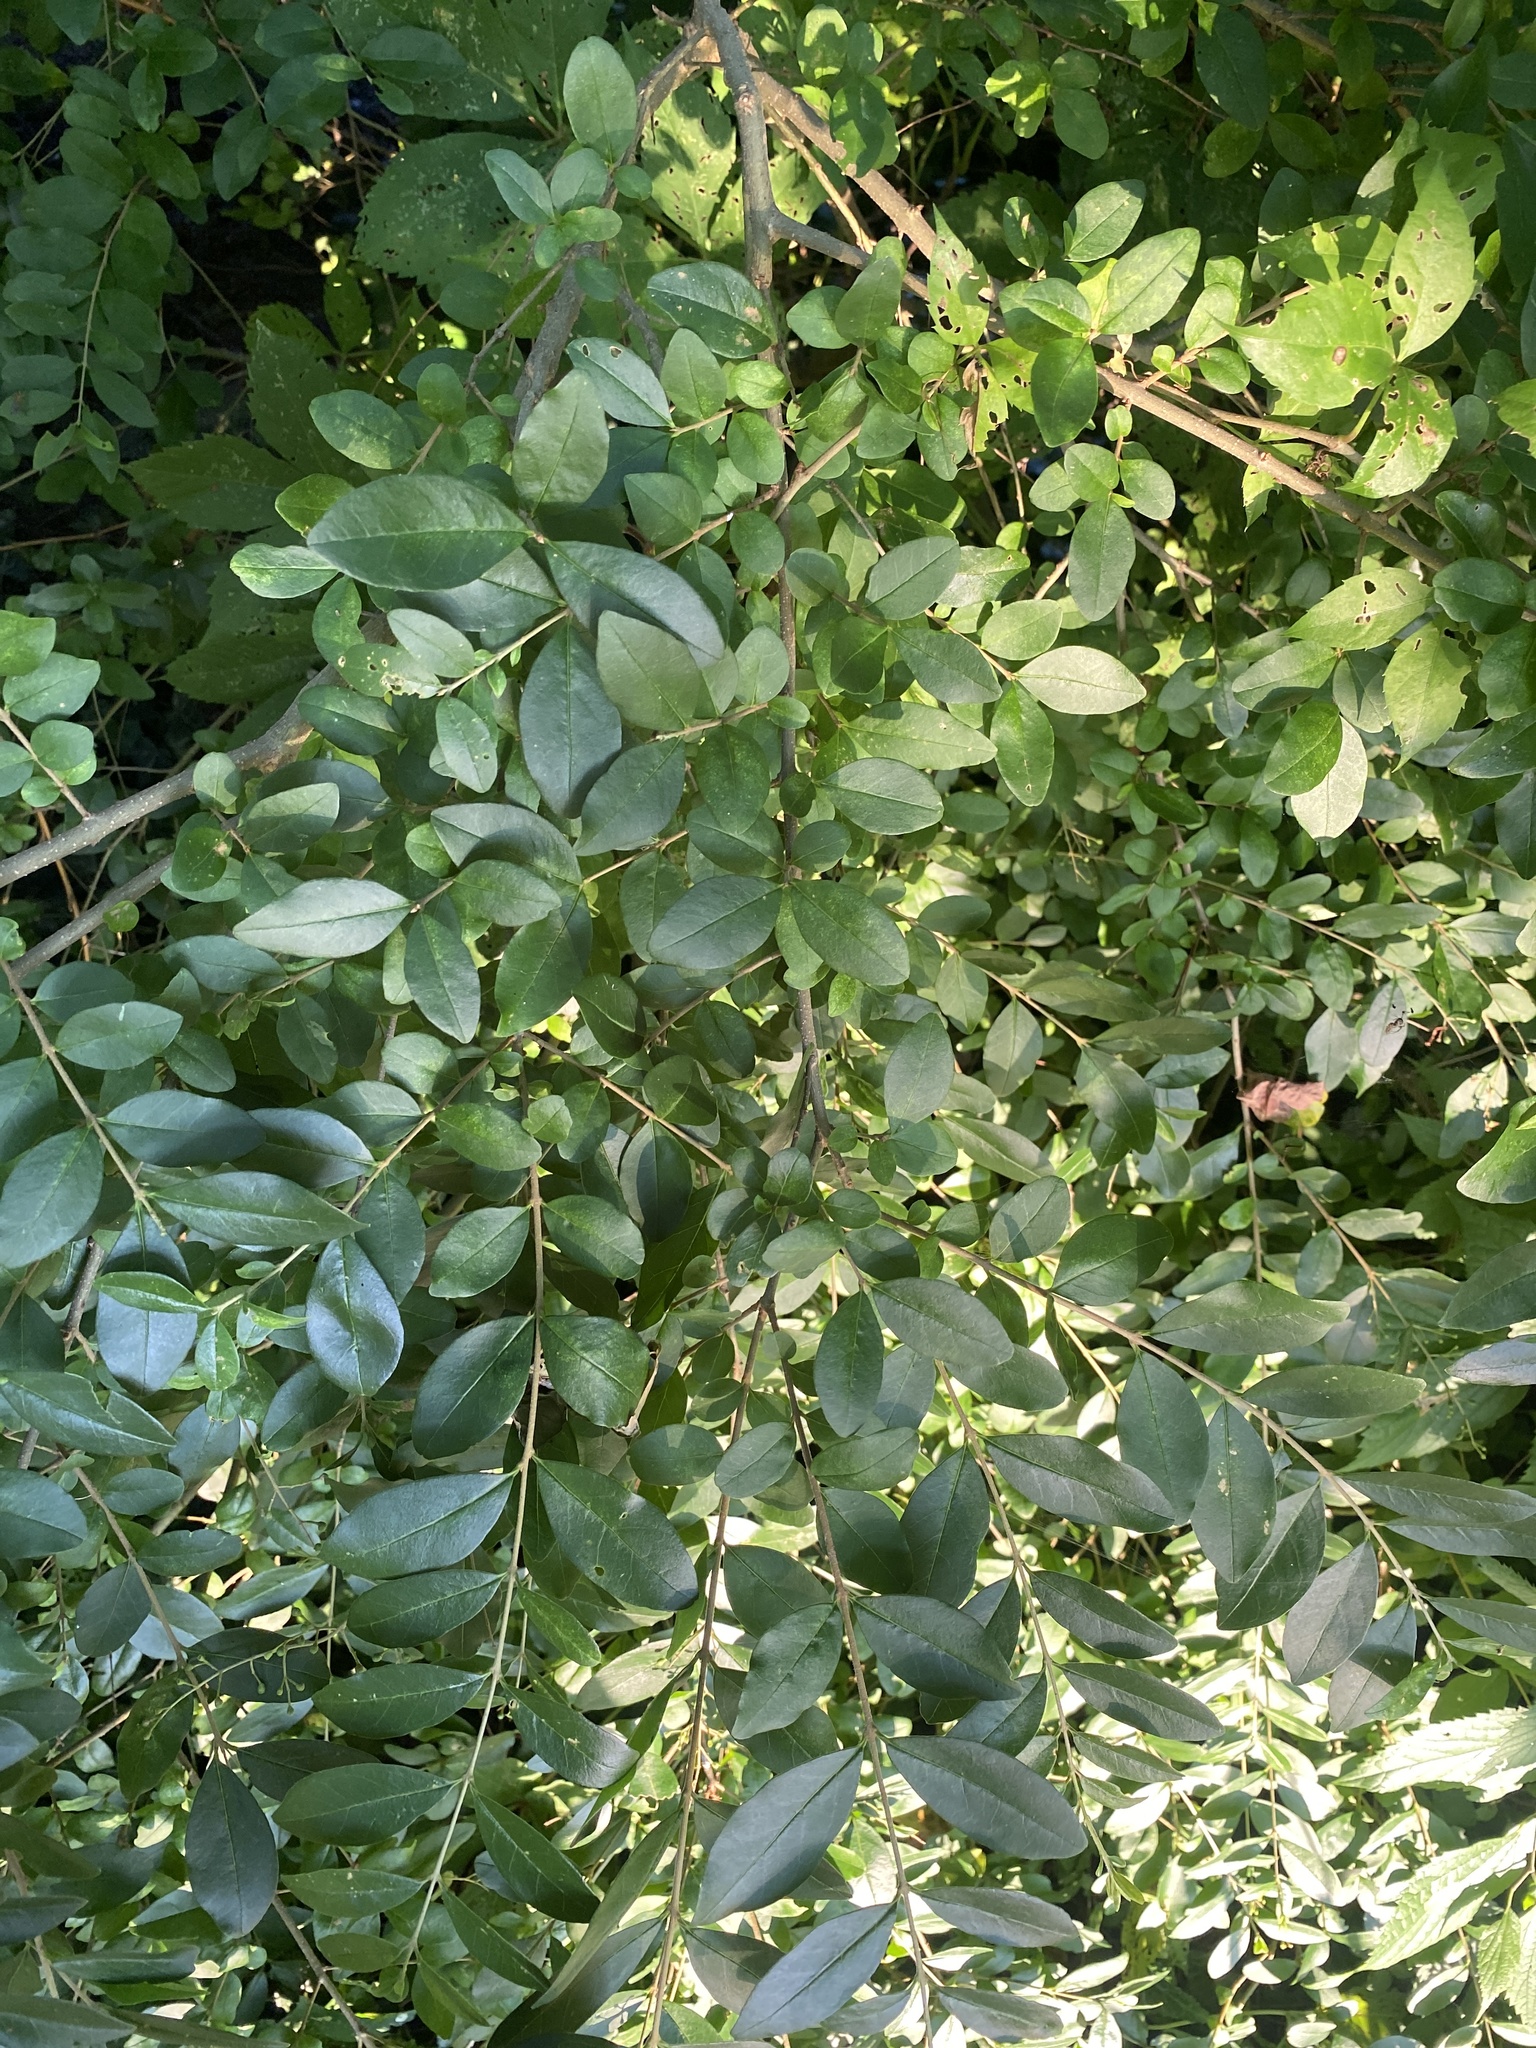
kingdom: Plantae
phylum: Tracheophyta
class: Magnoliopsida
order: Lamiales
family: Oleaceae
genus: Ligustrum
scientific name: Ligustrum sinense
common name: Chinese privet
